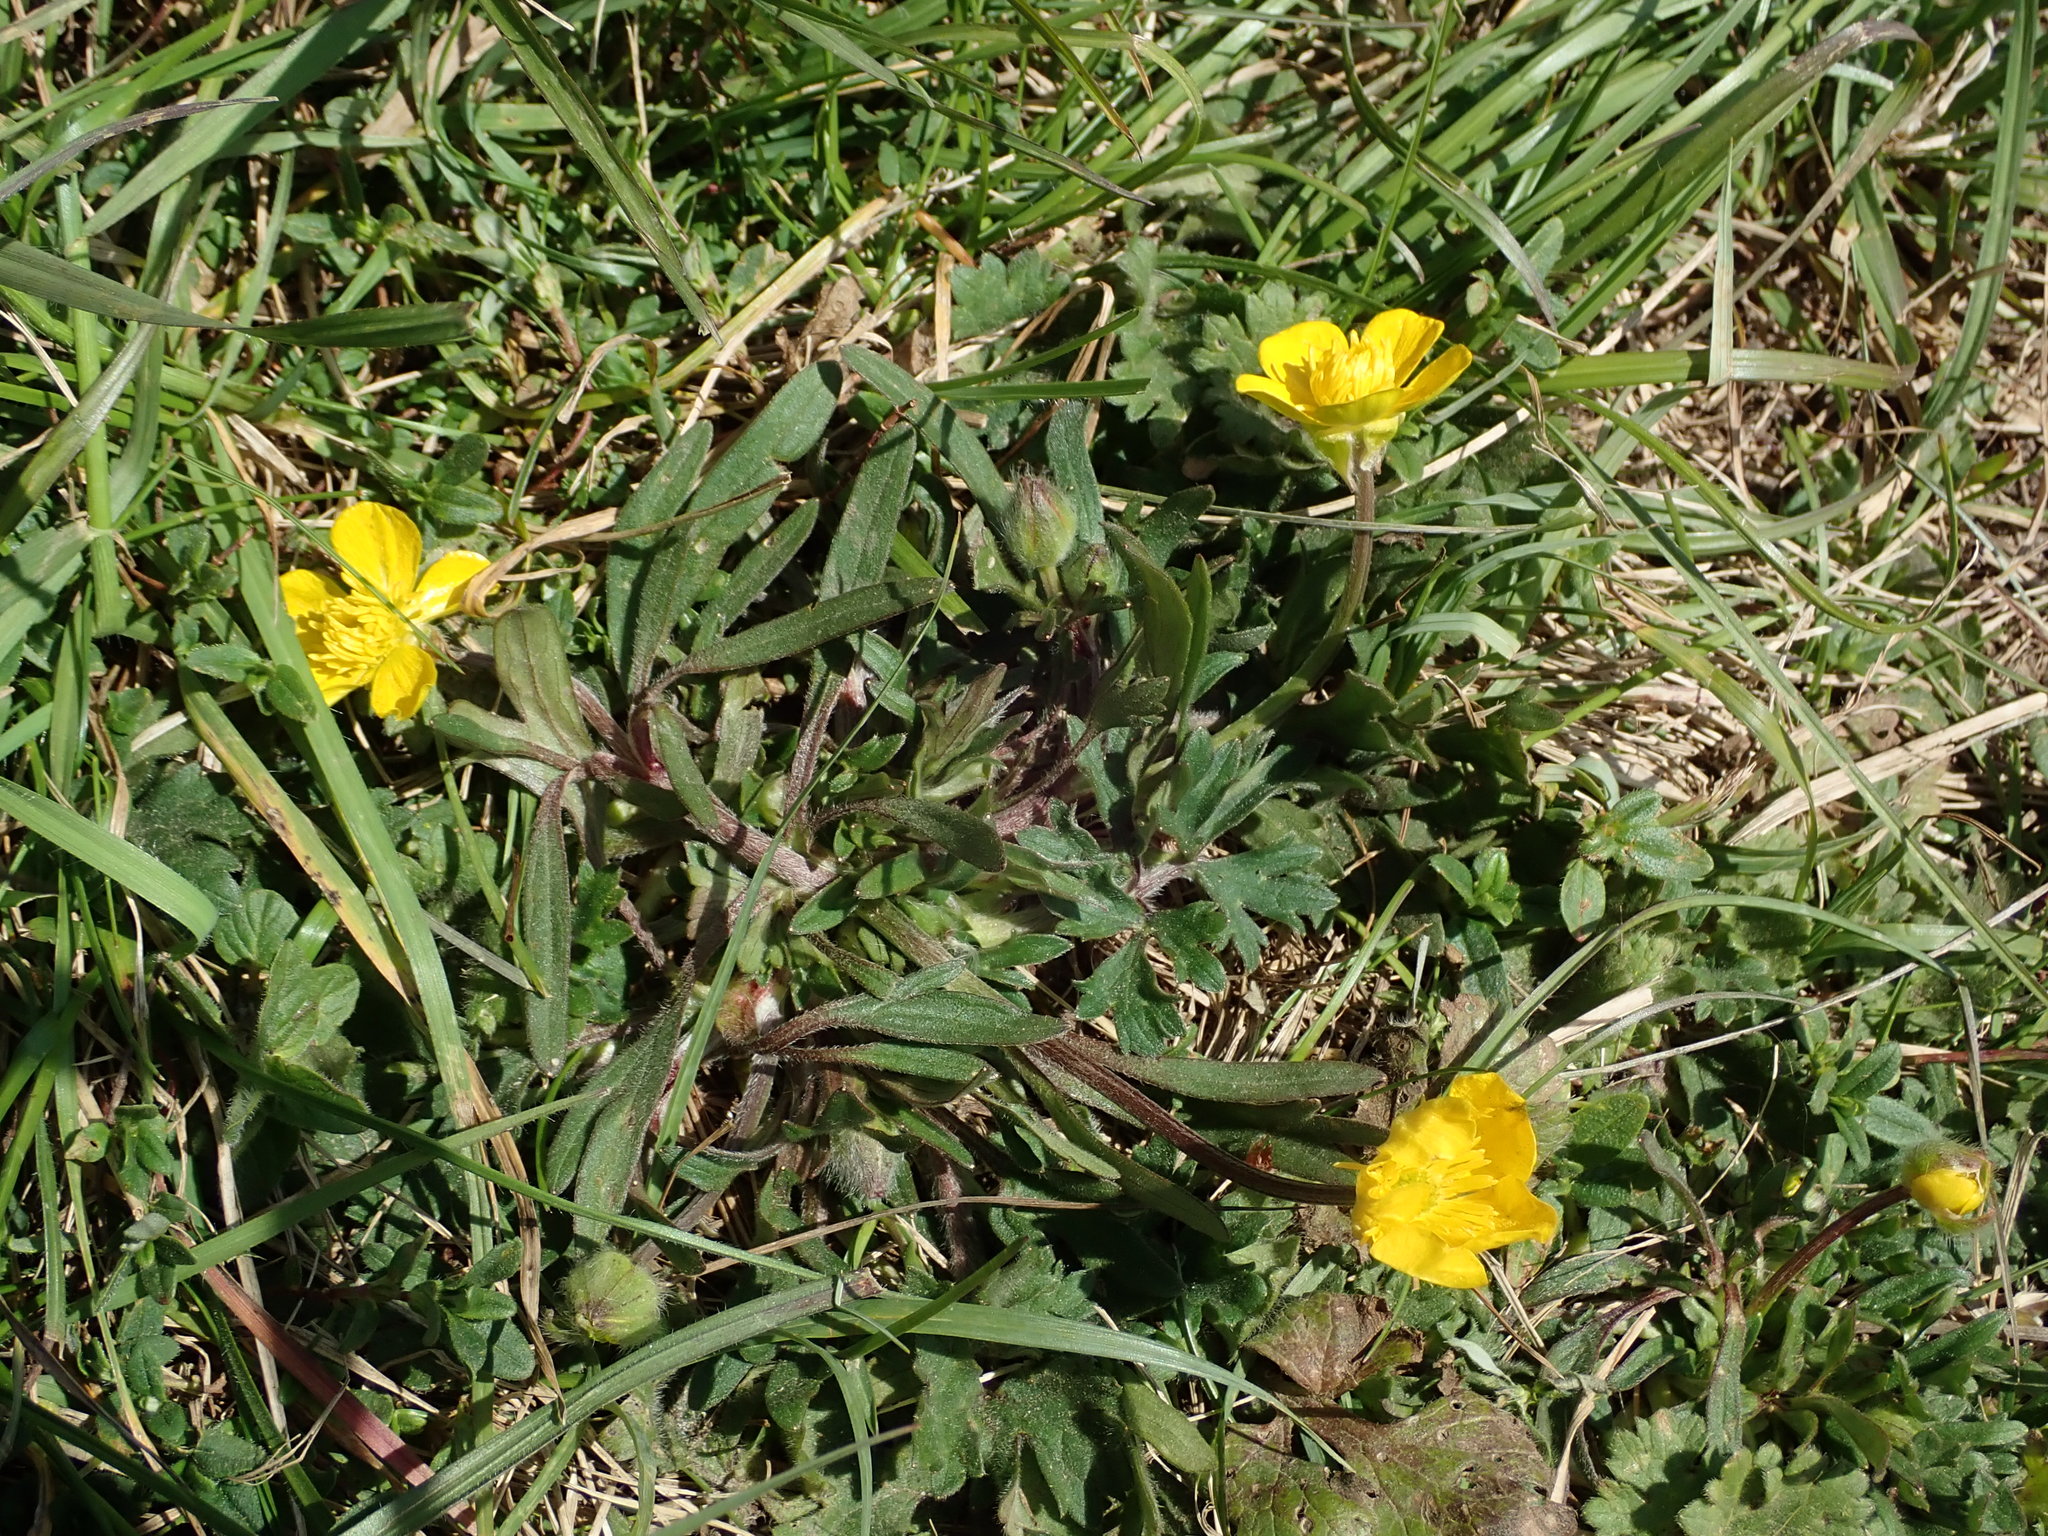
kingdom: Plantae
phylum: Tracheophyta
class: Magnoliopsida
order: Ranunculales
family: Ranunculaceae
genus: Ranunculus
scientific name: Ranunculus bulbosus
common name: Bulbous buttercup
